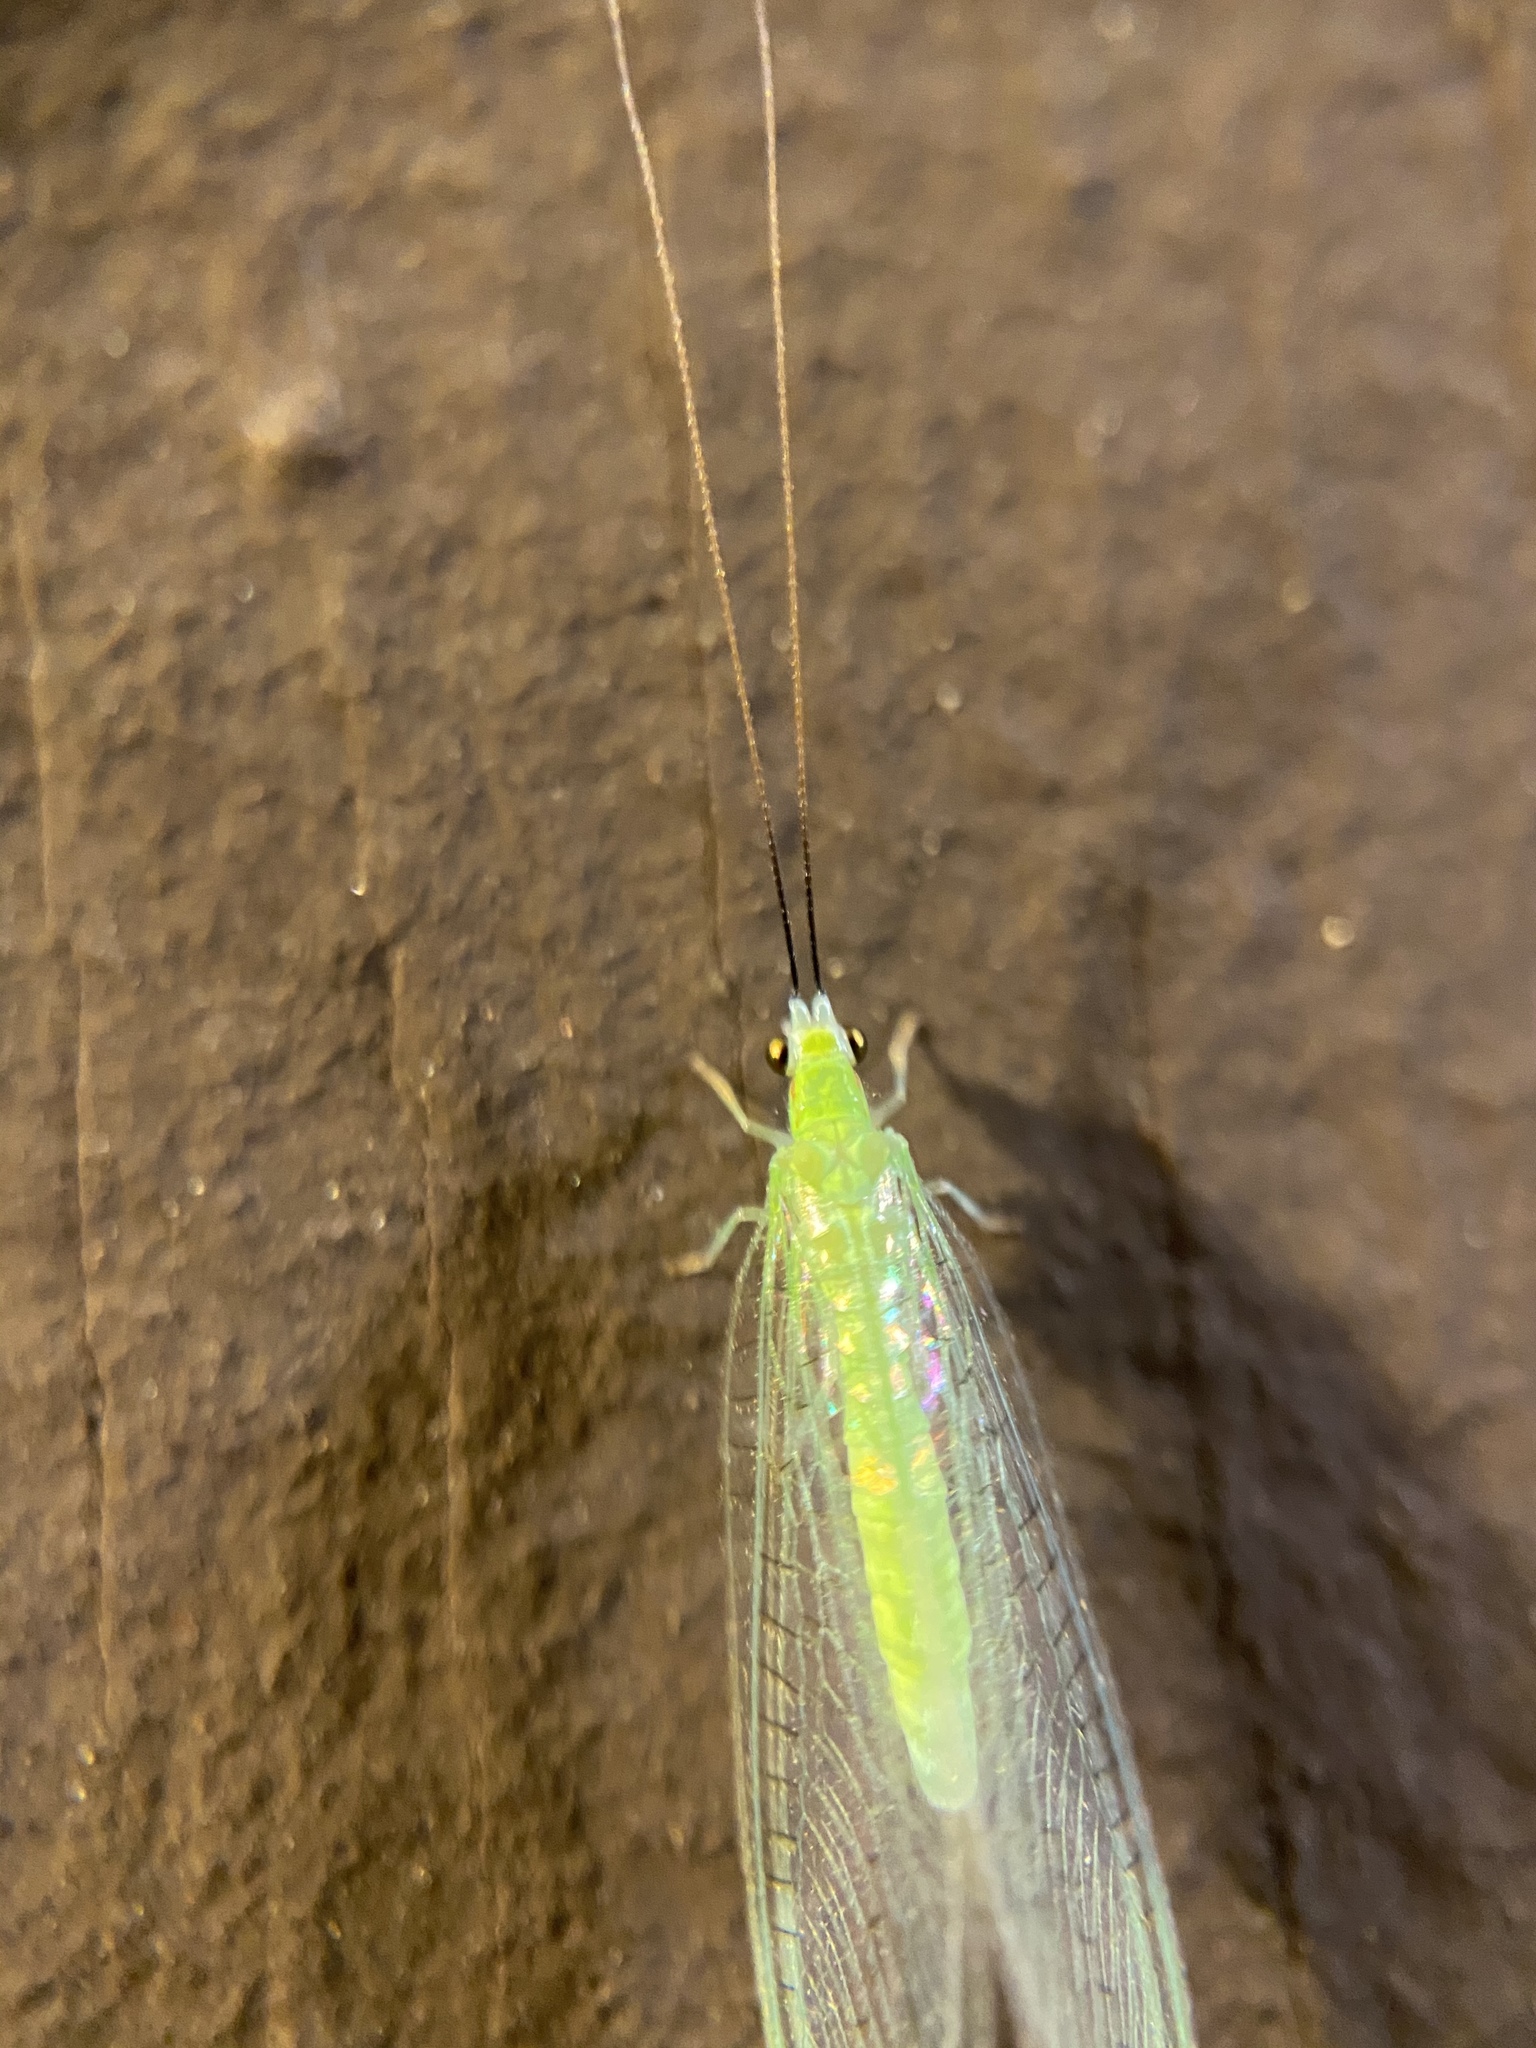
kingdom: Animalia
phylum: Arthropoda
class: Insecta
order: Neuroptera
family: Chrysopidae
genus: Ceraeochrysa
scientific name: Ceraeochrysa lineaticornis
